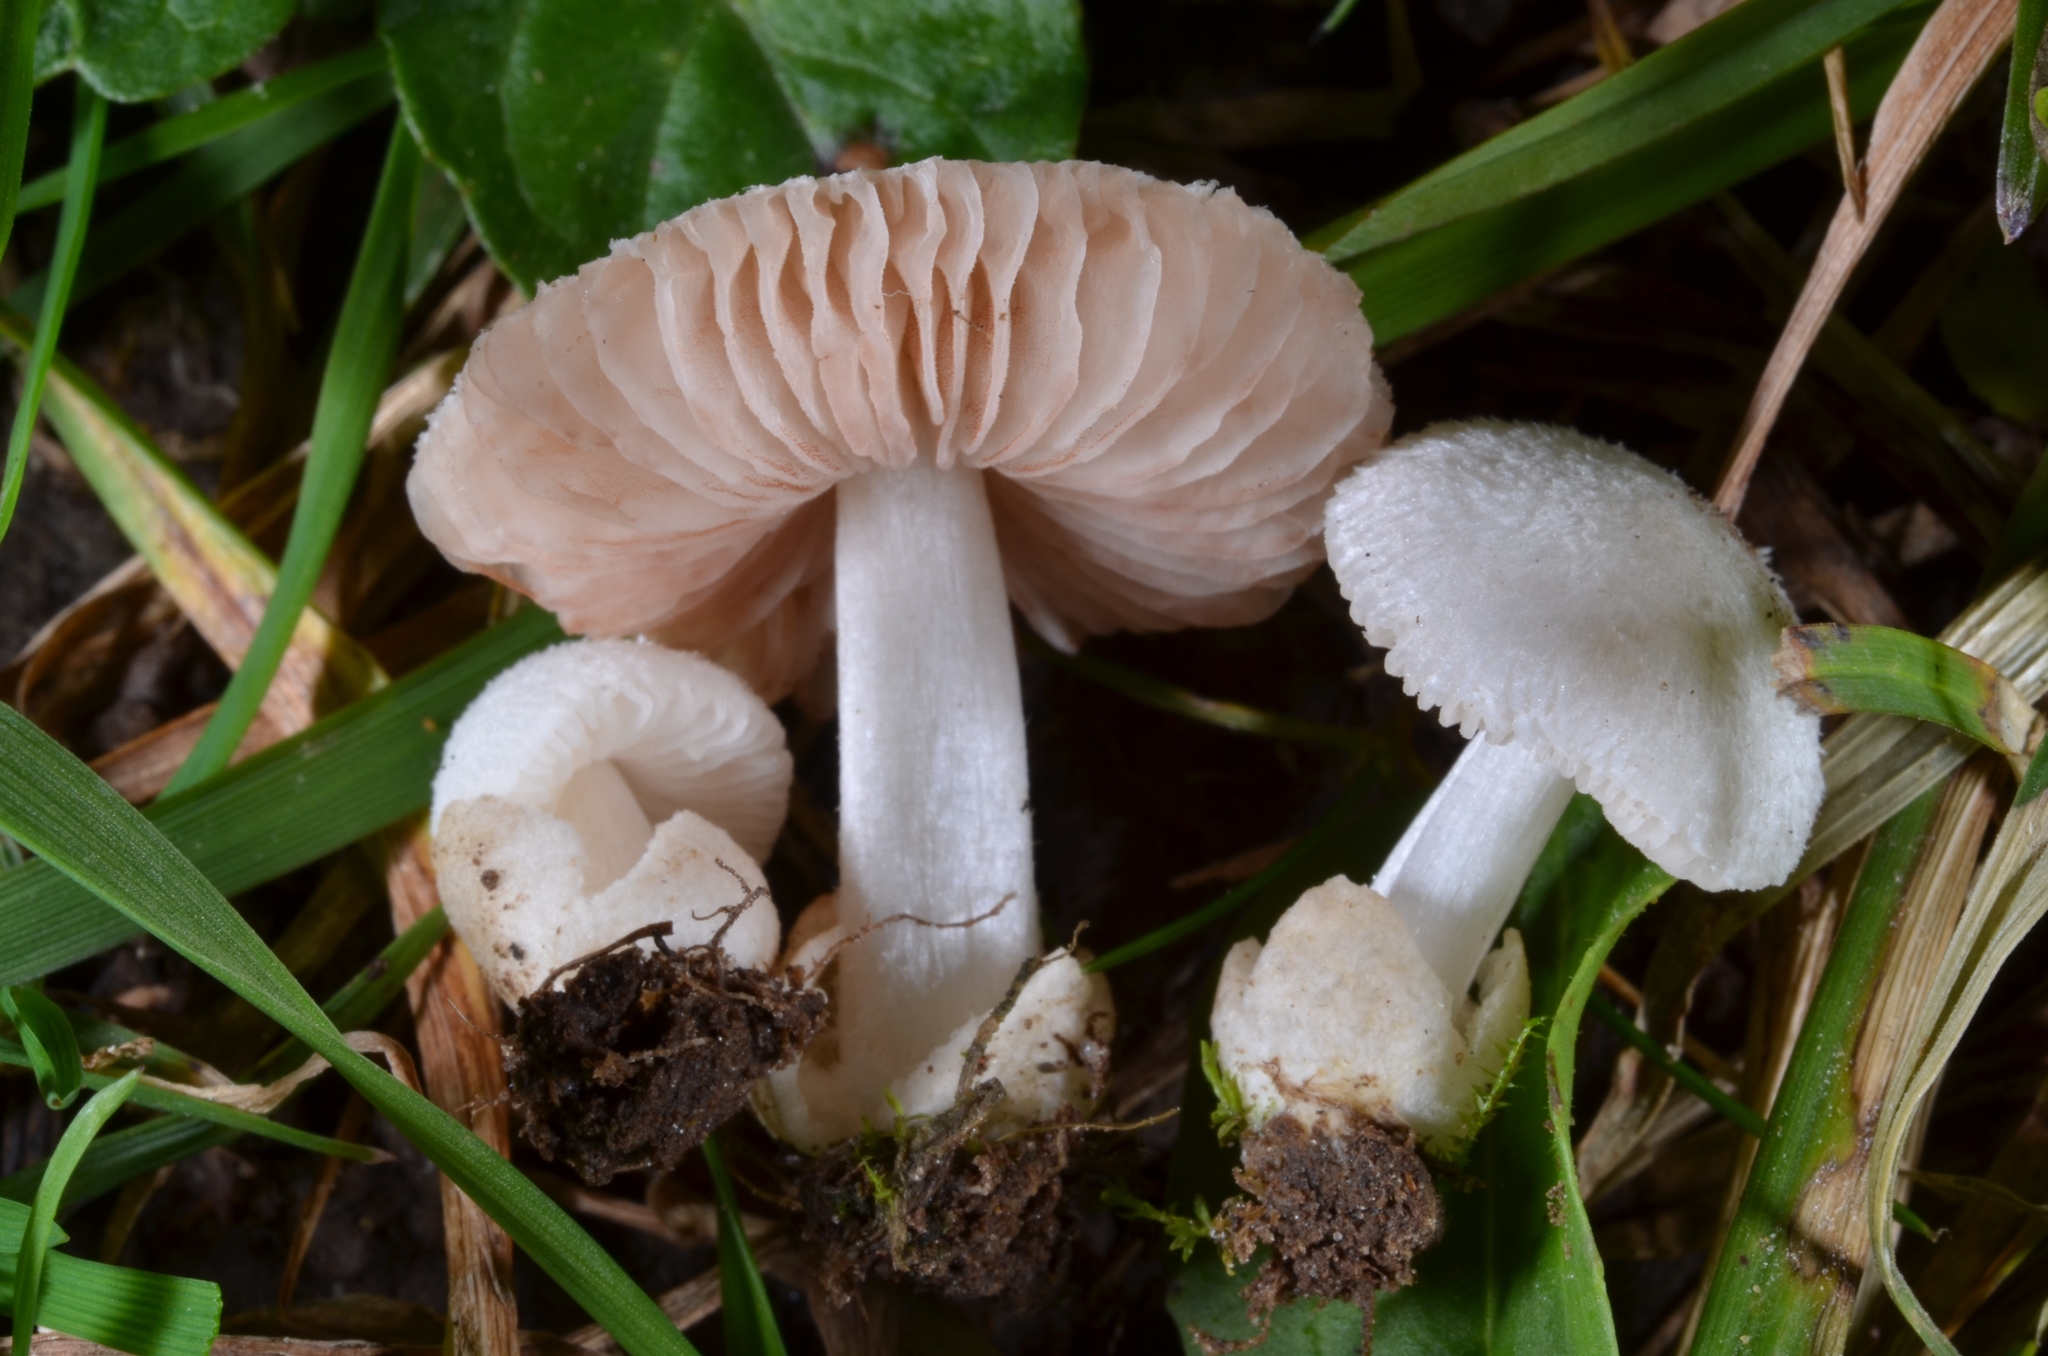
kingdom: Fungi
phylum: Basidiomycota
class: Agaricomycetes
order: Agaricales
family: Pluteaceae
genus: Volvariella
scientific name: Volvariella murinella
